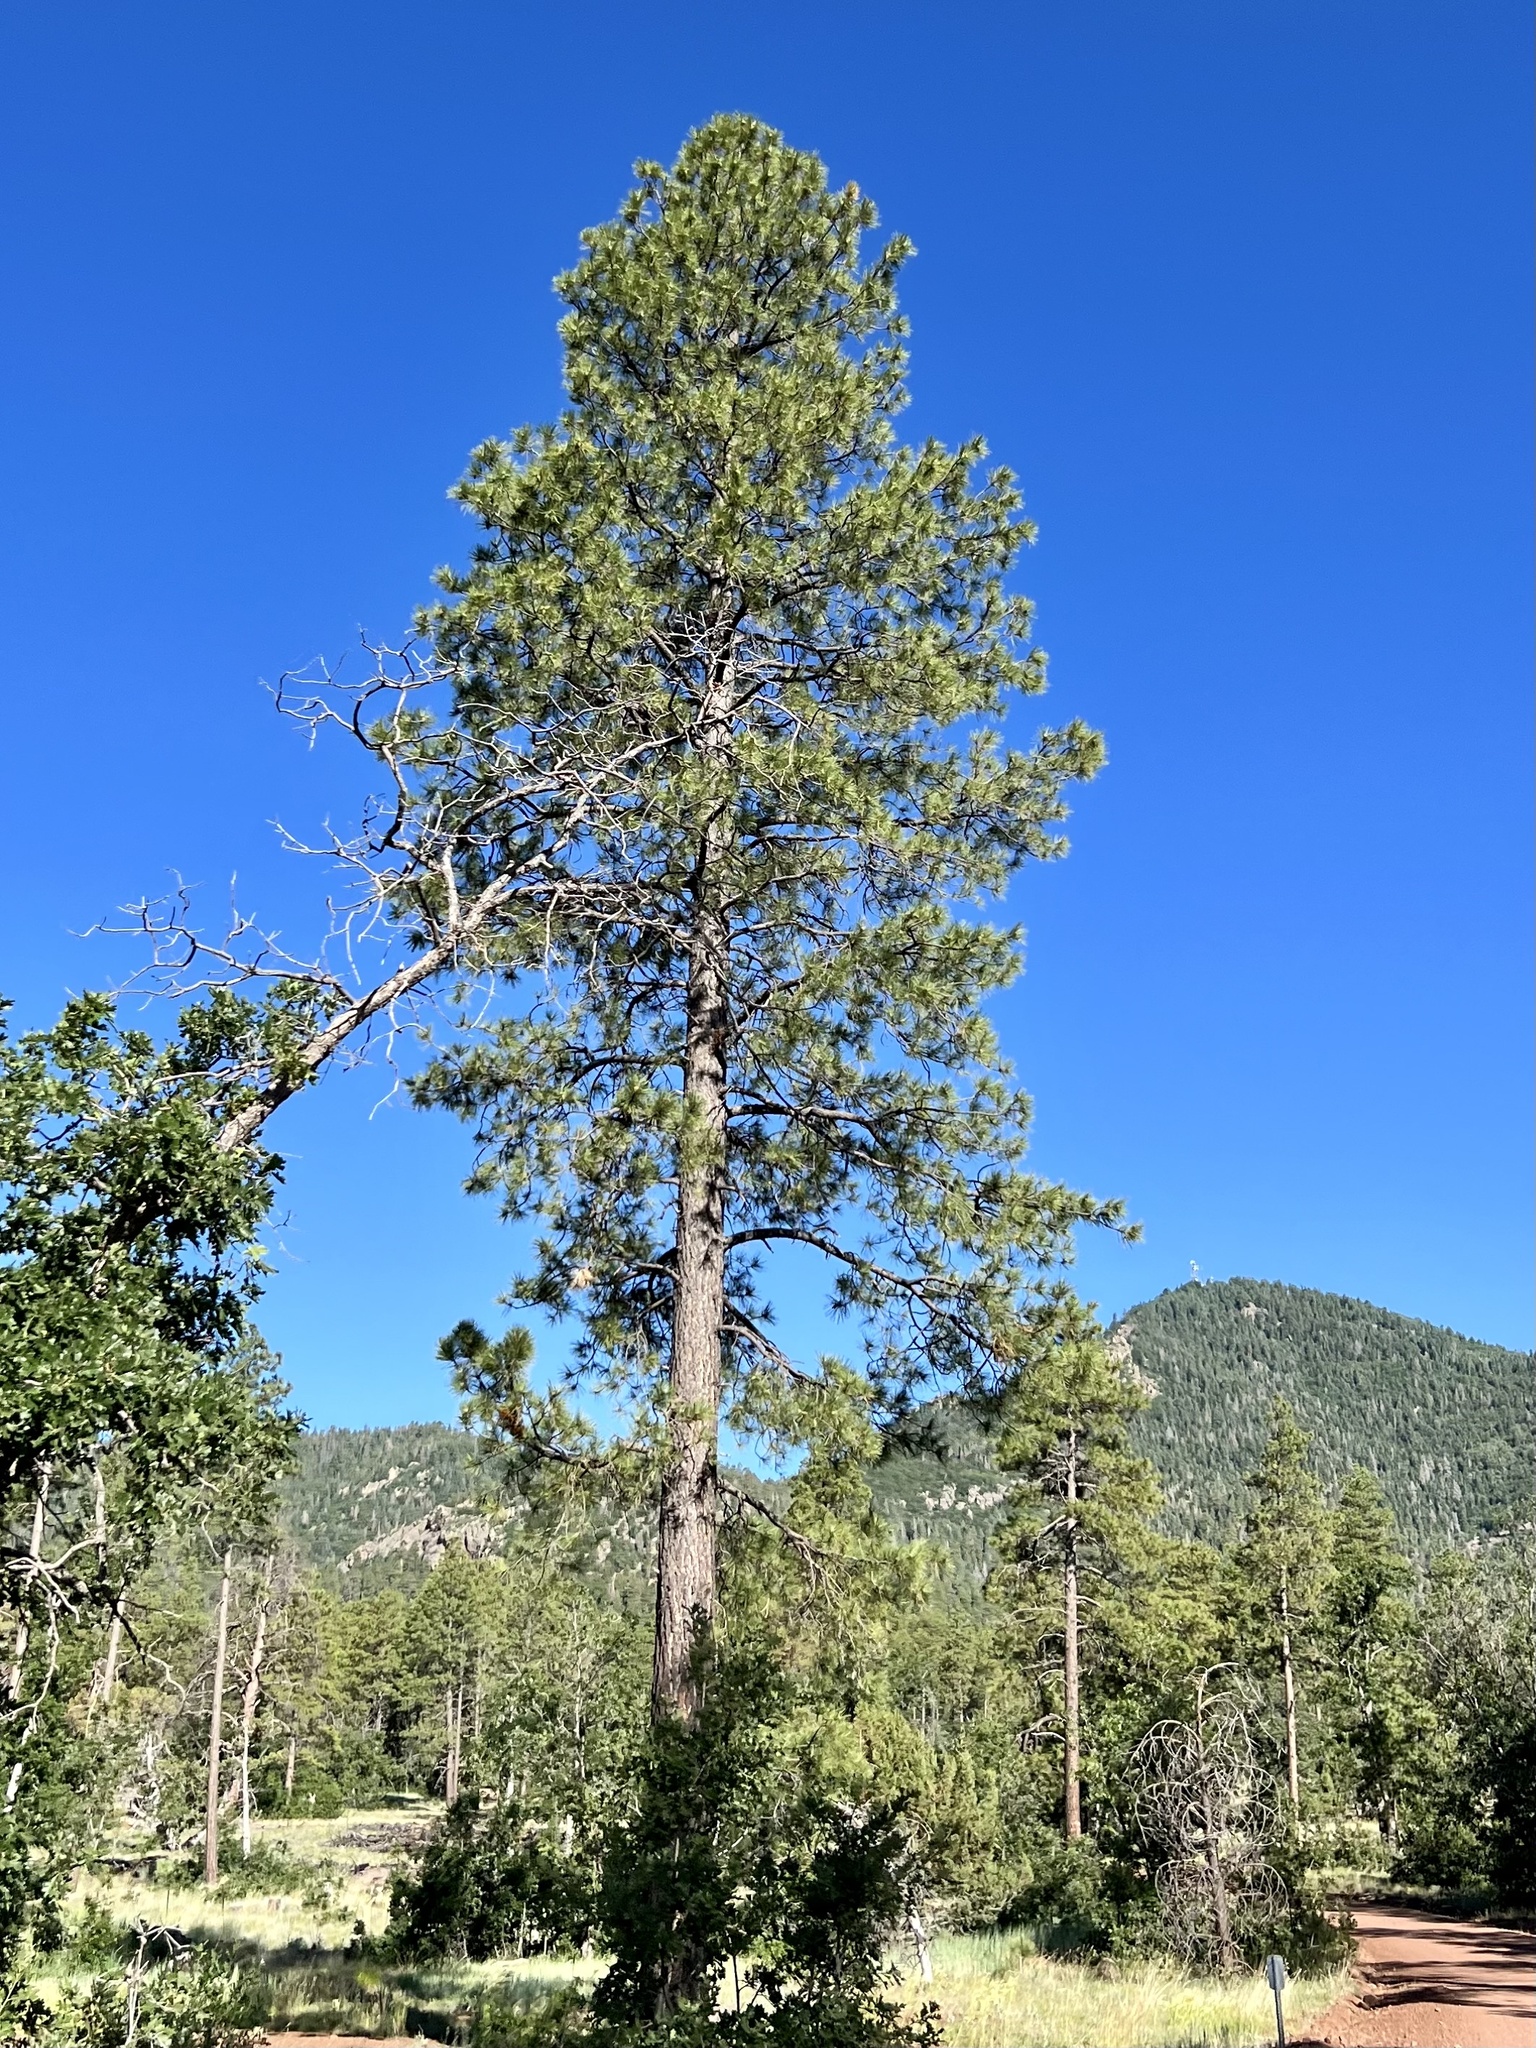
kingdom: Plantae
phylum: Tracheophyta
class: Pinopsida
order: Pinales
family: Pinaceae
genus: Pinus
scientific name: Pinus ponderosa
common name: Western yellow-pine
